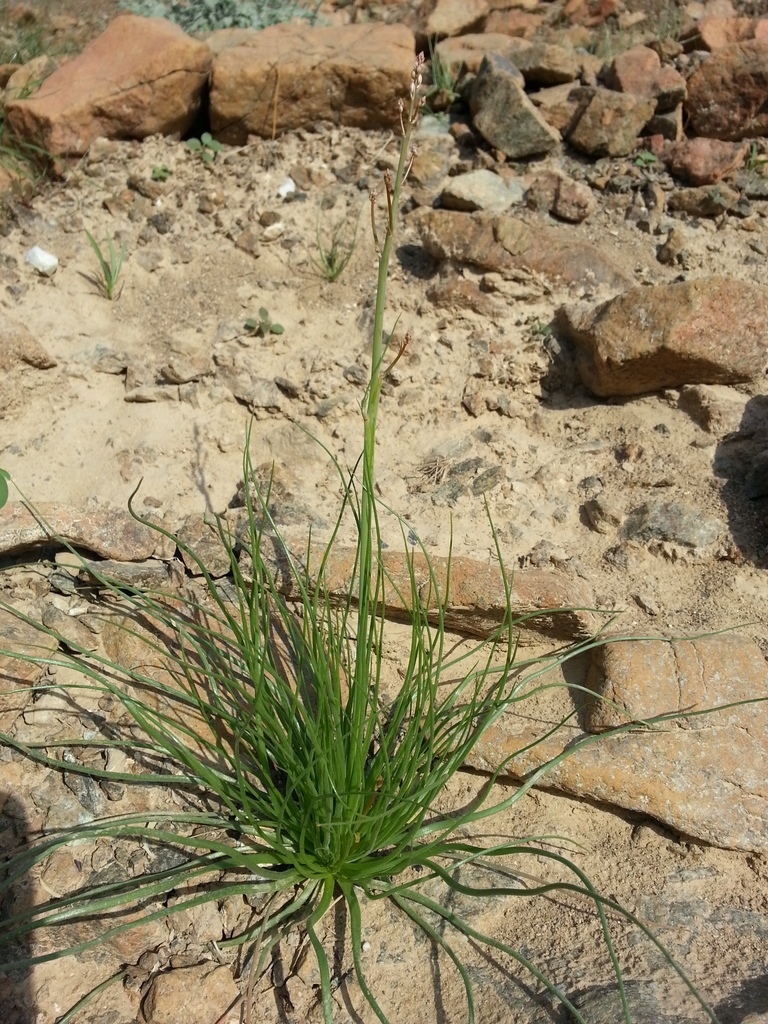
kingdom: Plantae
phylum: Tracheophyta
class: Liliopsida
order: Asparagales
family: Asphodelaceae
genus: Asphodelus
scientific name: Asphodelus tenuifolius
